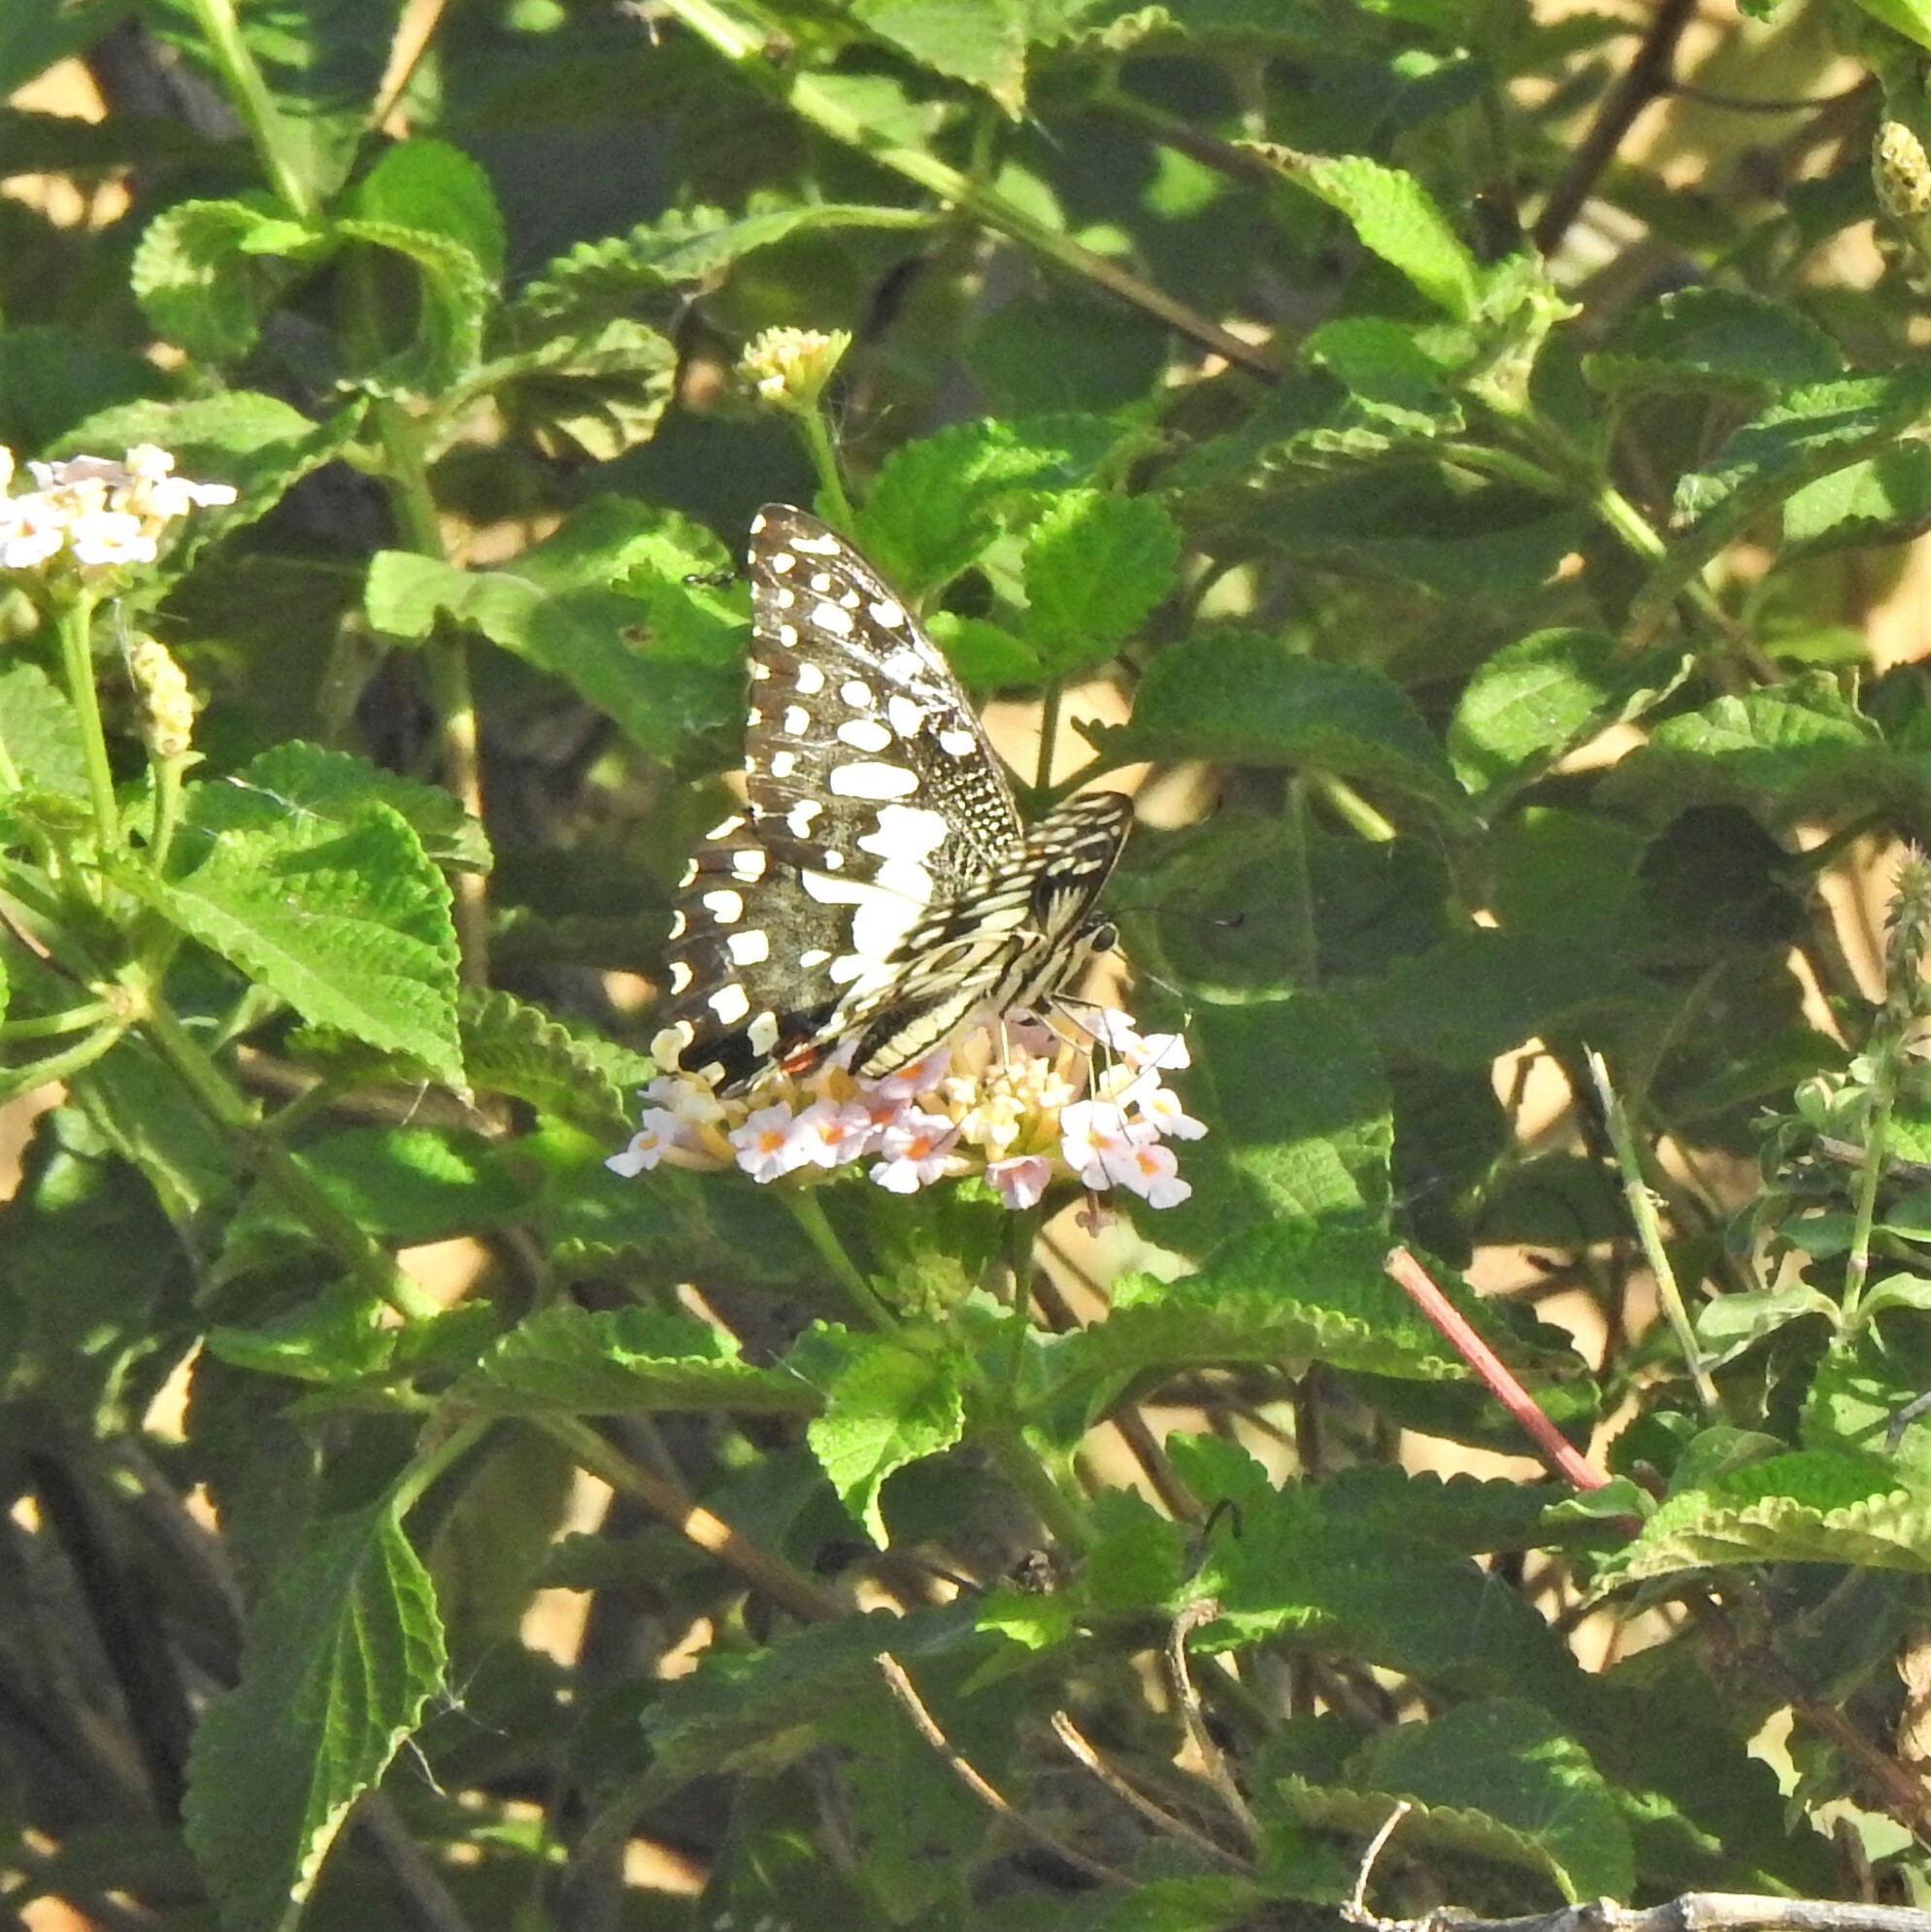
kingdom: Animalia
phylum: Arthropoda
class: Insecta
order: Lepidoptera
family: Papilionidae
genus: Papilio
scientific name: Papilio demoleus
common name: Lime butterfly
